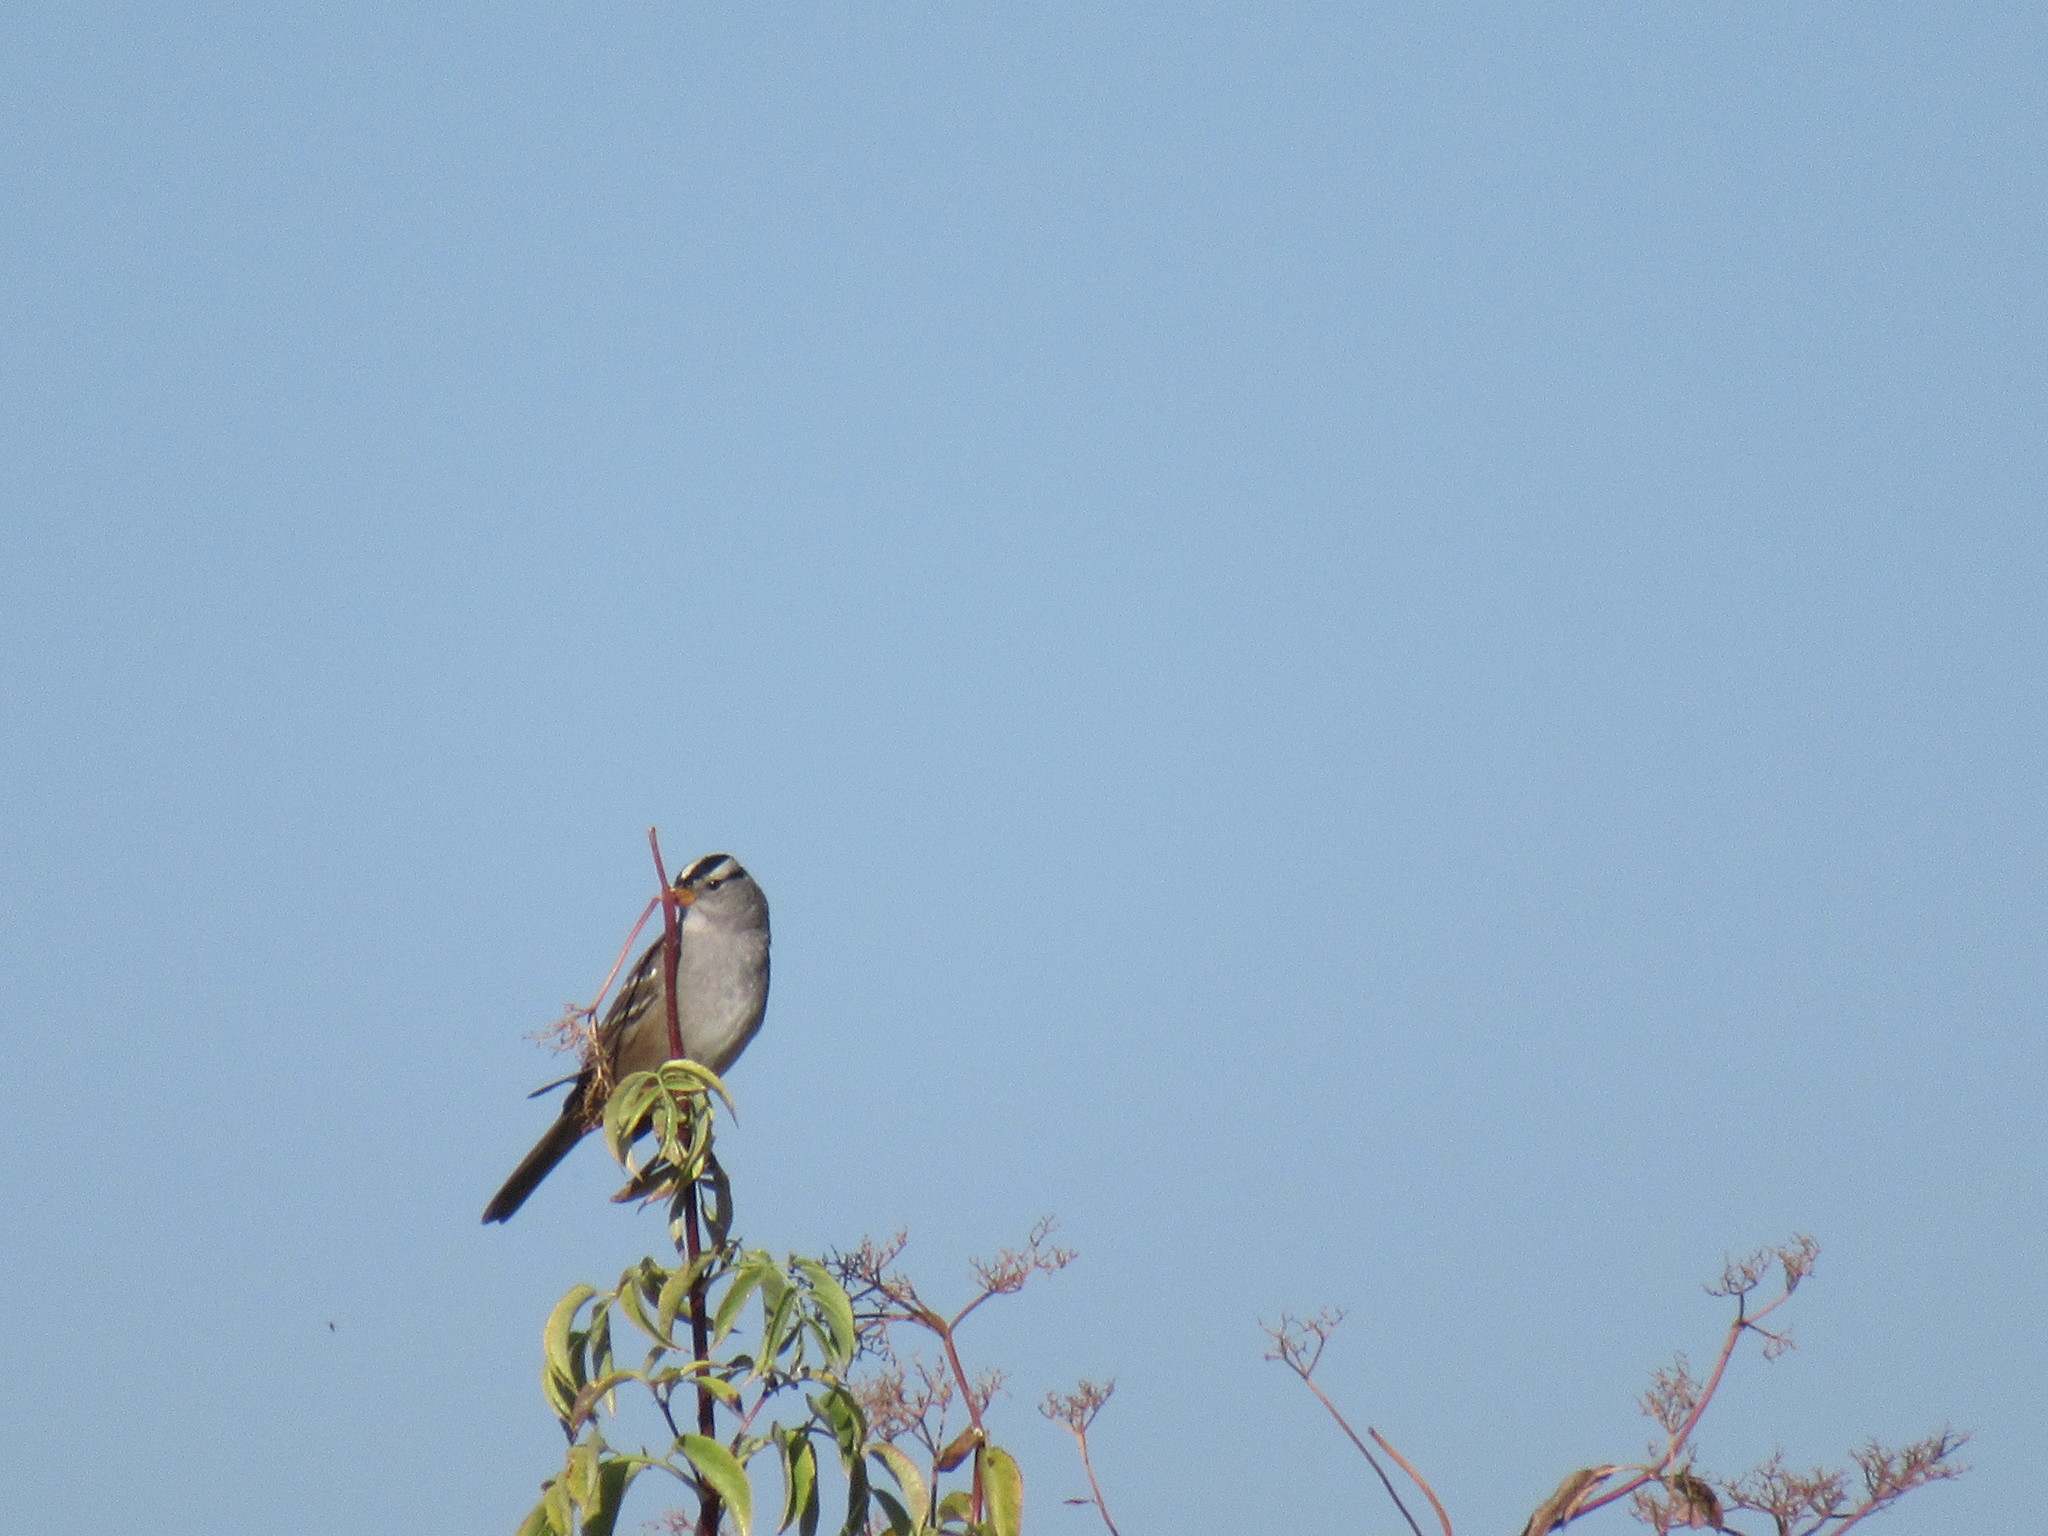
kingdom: Animalia
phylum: Chordata
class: Aves
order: Passeriformes
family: Passerellidae
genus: Zonotrichia
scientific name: Zonotrichia leucophrys
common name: White-crowned sparrow
